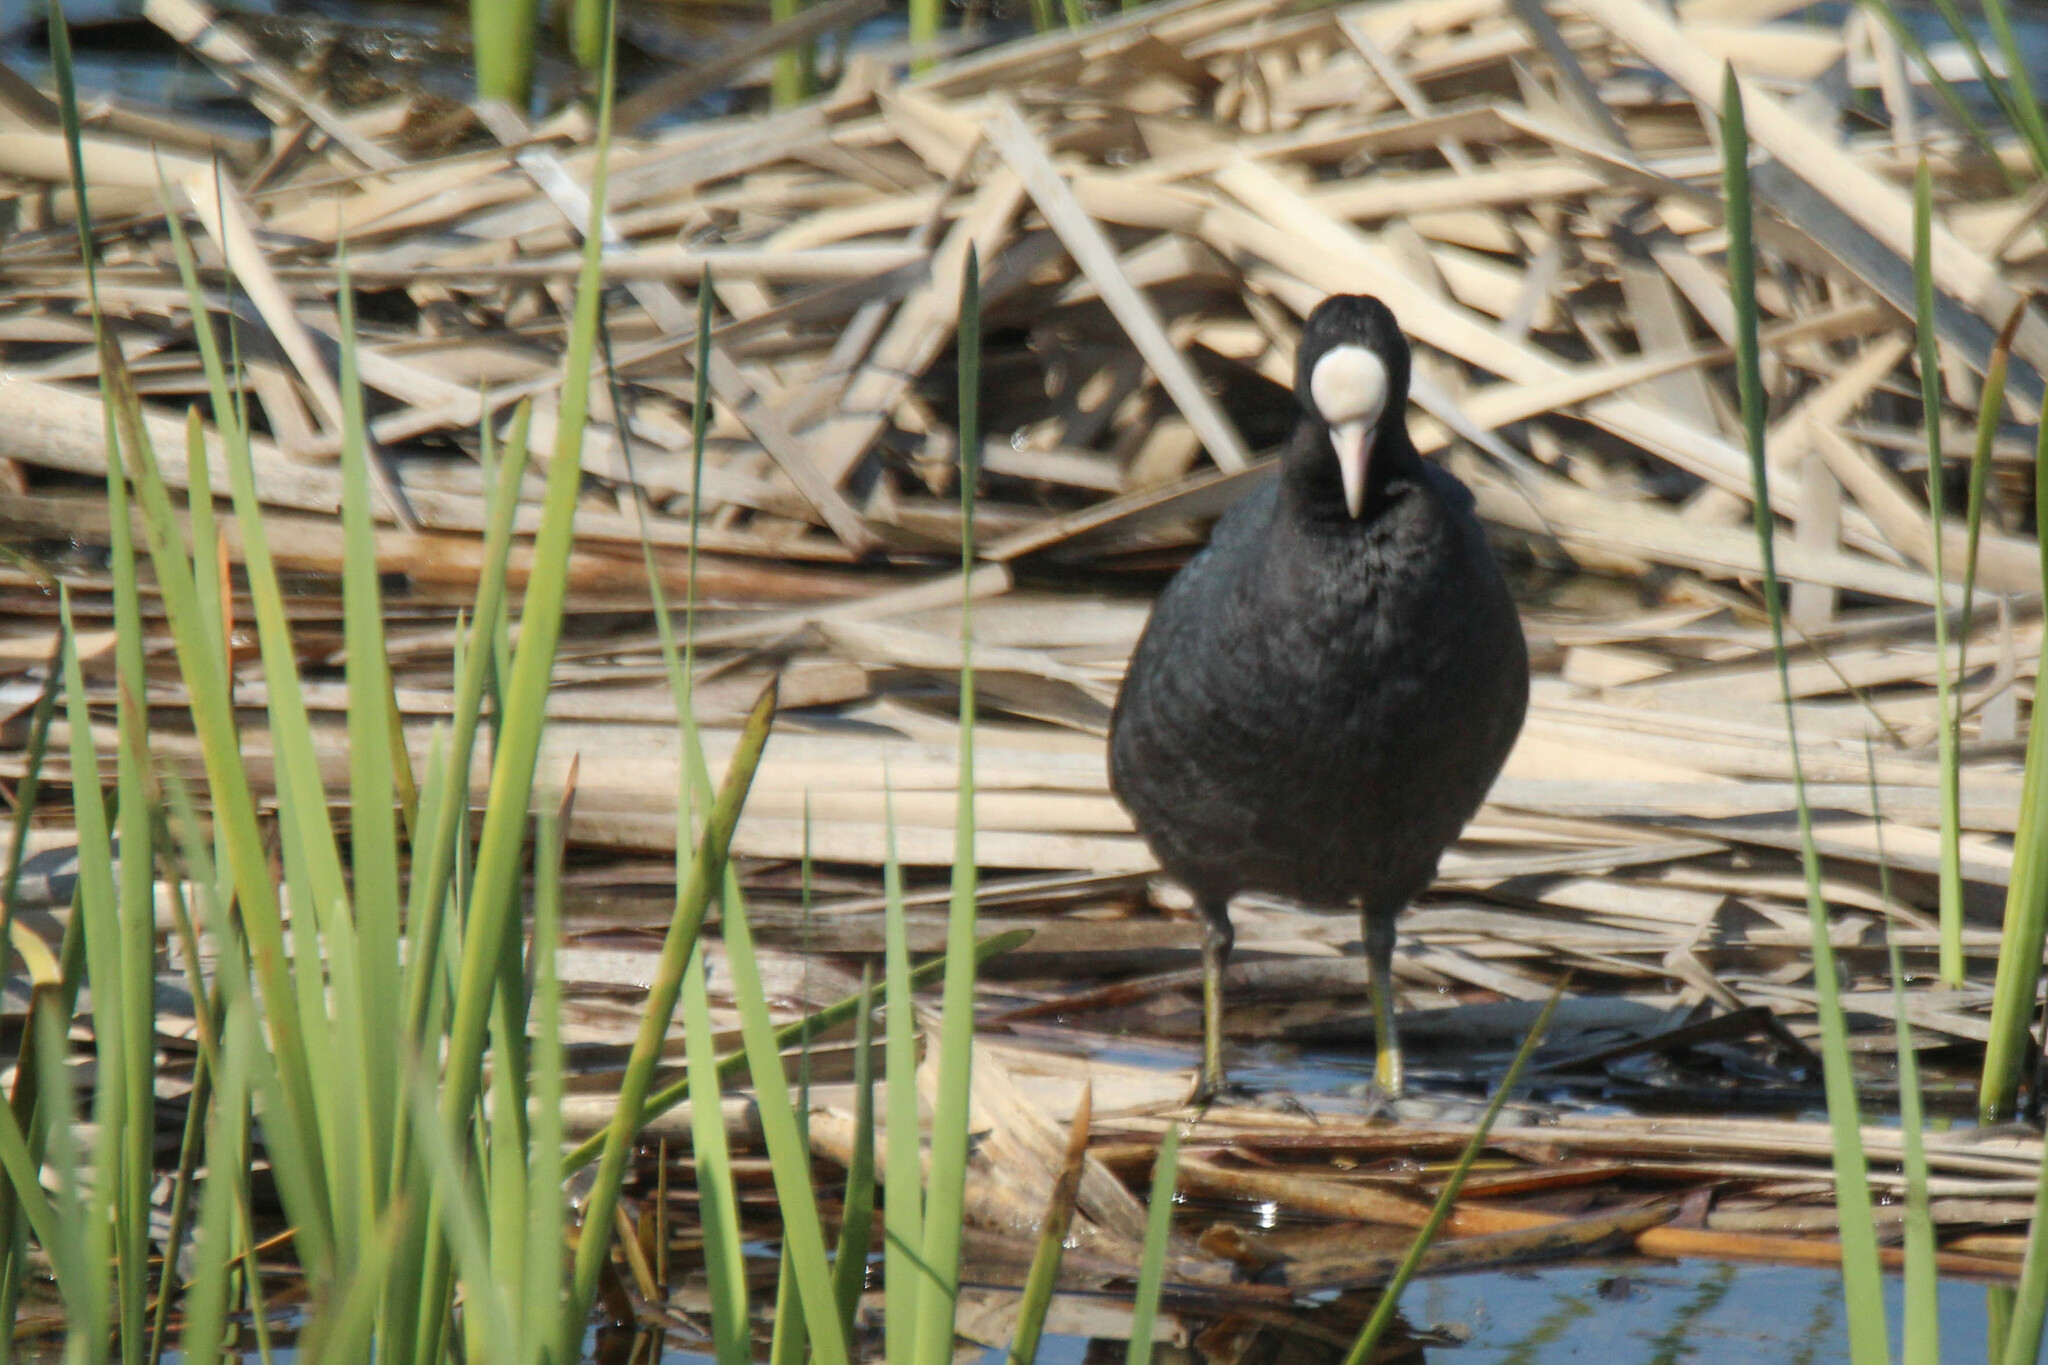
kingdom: Animalia
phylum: Chordata
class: Aves
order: Gruiformes
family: Rallidae
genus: Fulica
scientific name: Fulica atra
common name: Eurasian coot
